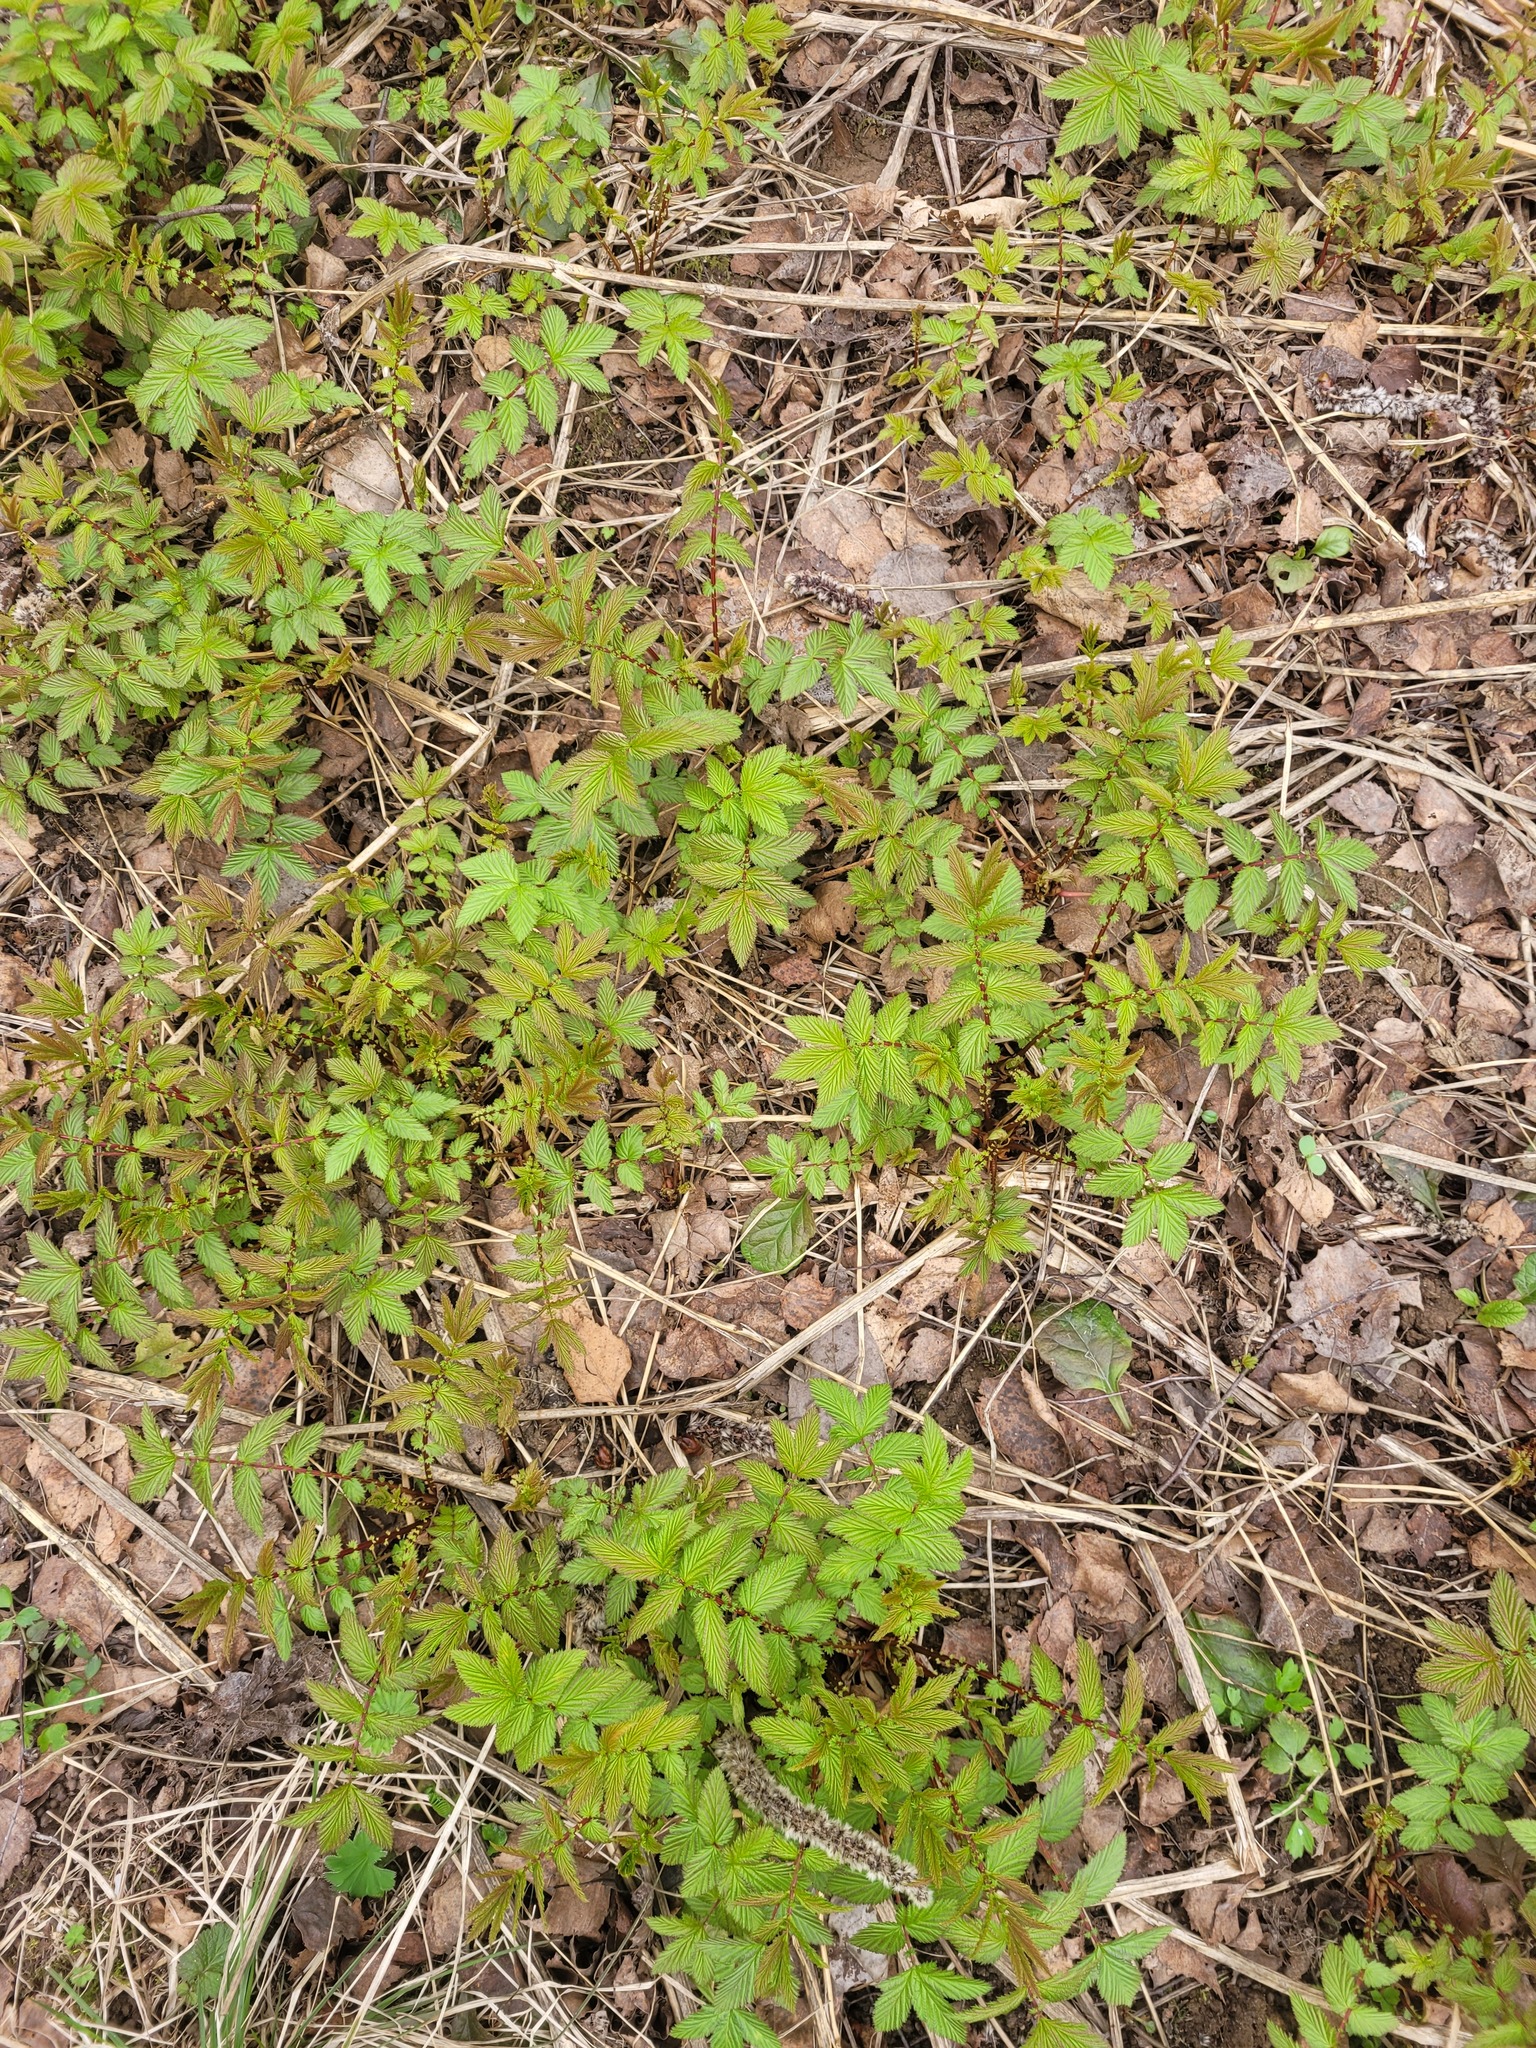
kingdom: Plantae
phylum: Tracheophyta
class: Magnoliopsida
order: Rosales
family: Rosaceae
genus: Filipendula
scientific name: Filipendula ulmaria
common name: Meadowsweet
